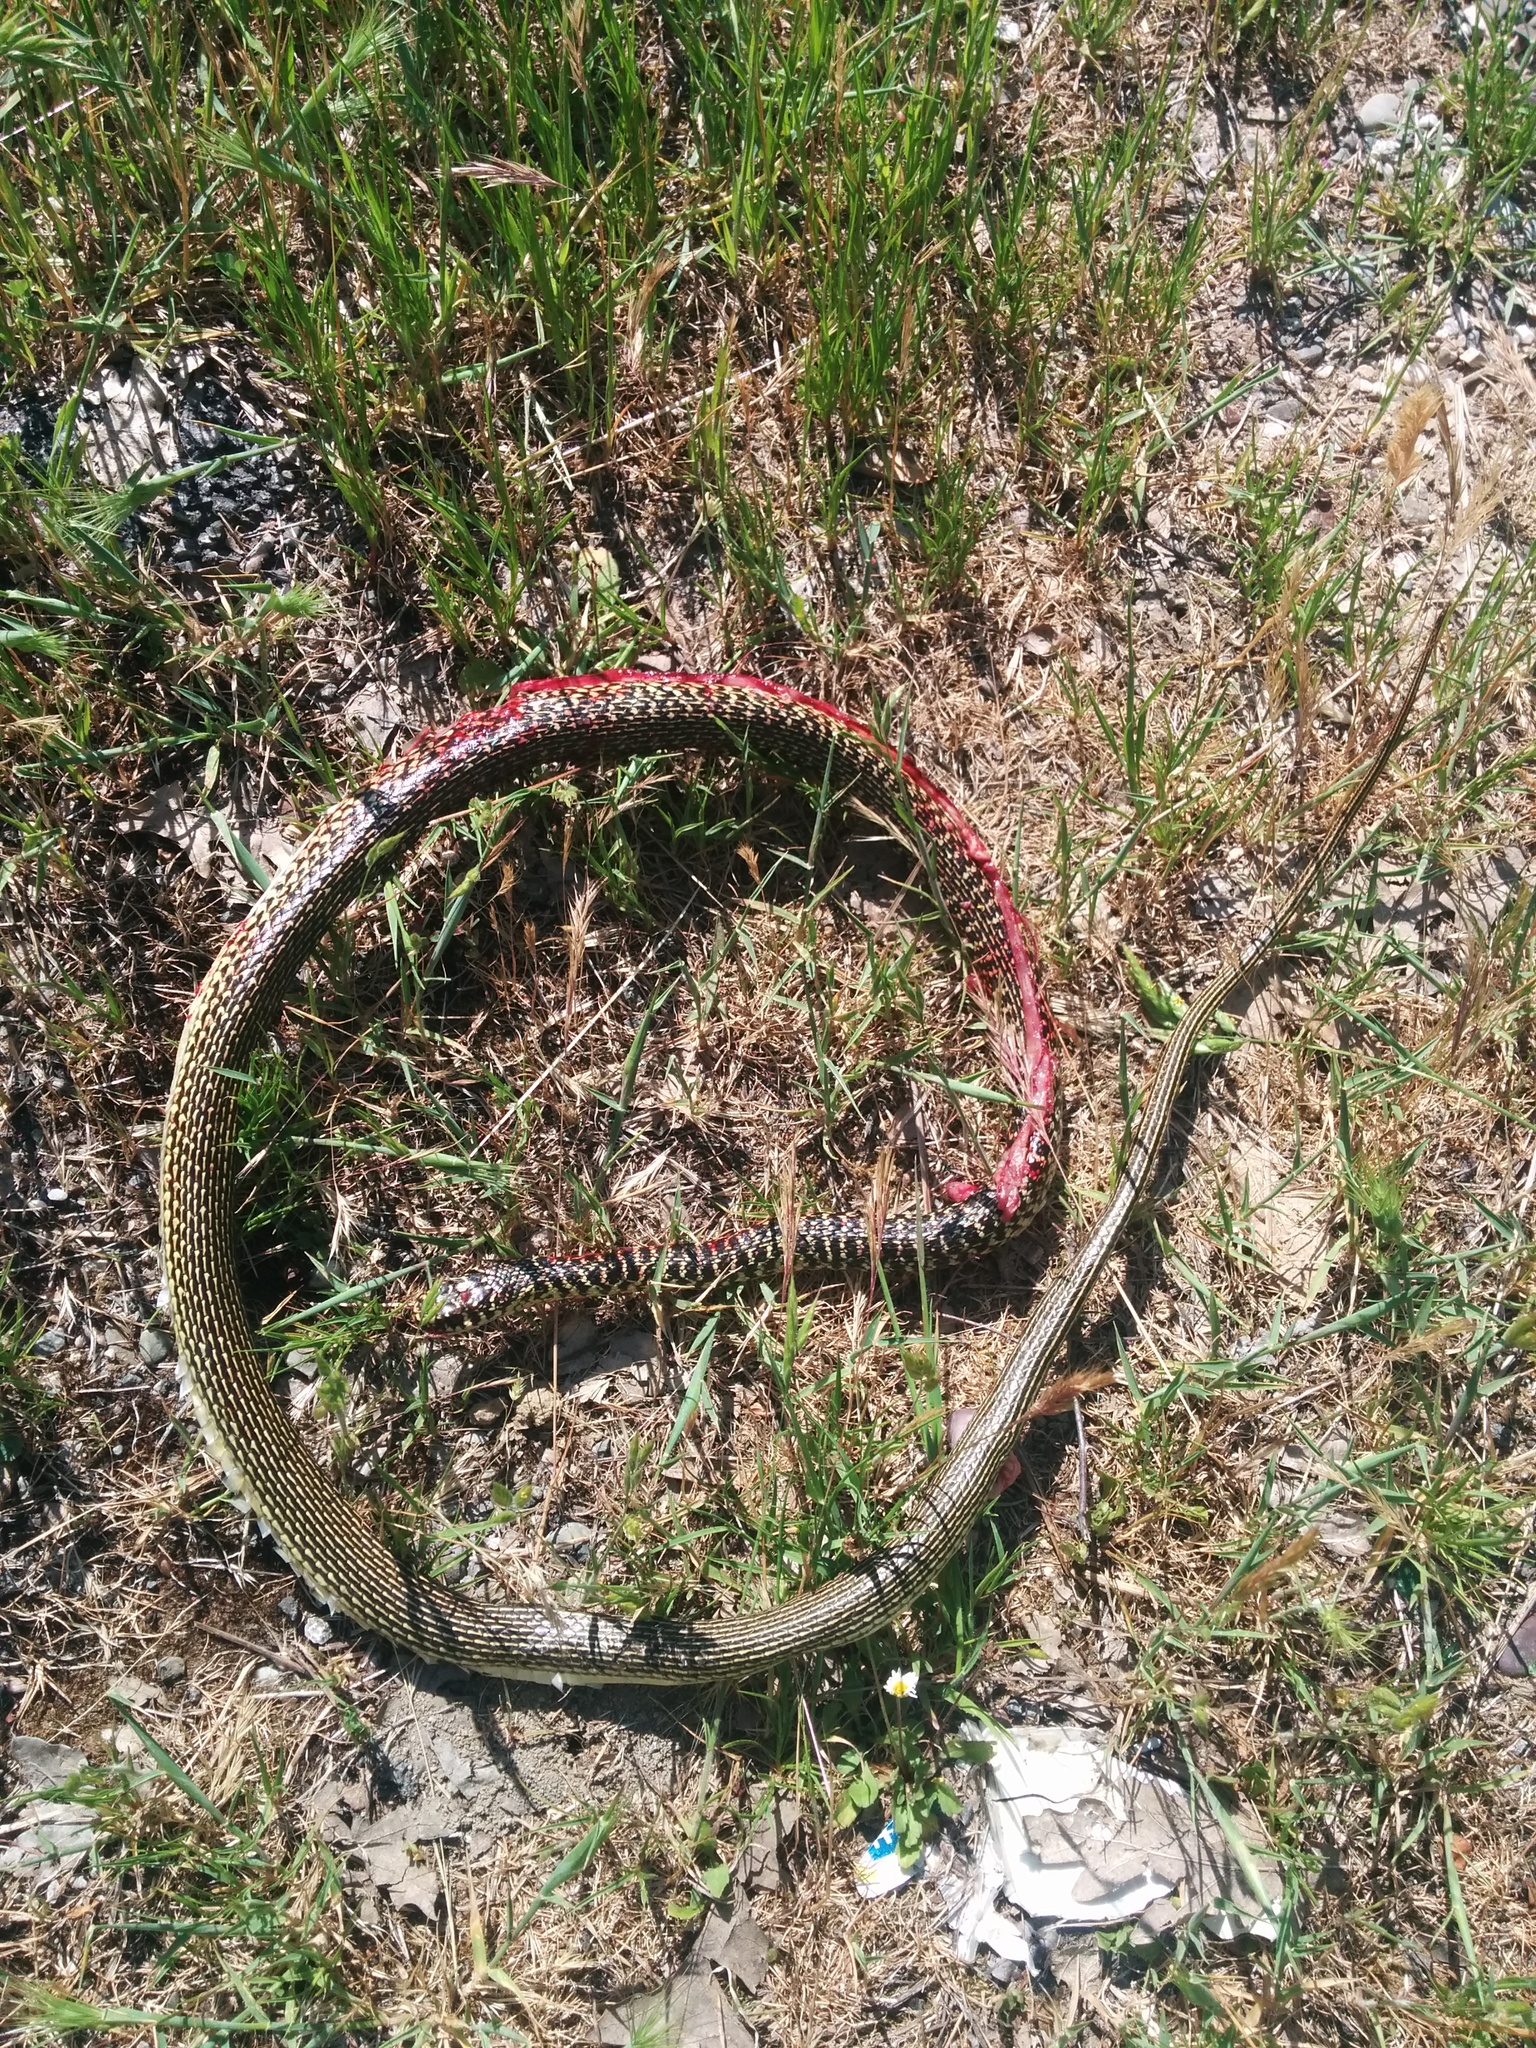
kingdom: Animalia
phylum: Chordata
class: Squamata
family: Colubridae
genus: Hierophis
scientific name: Hierophis viridiflavus
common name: Green whip snake
